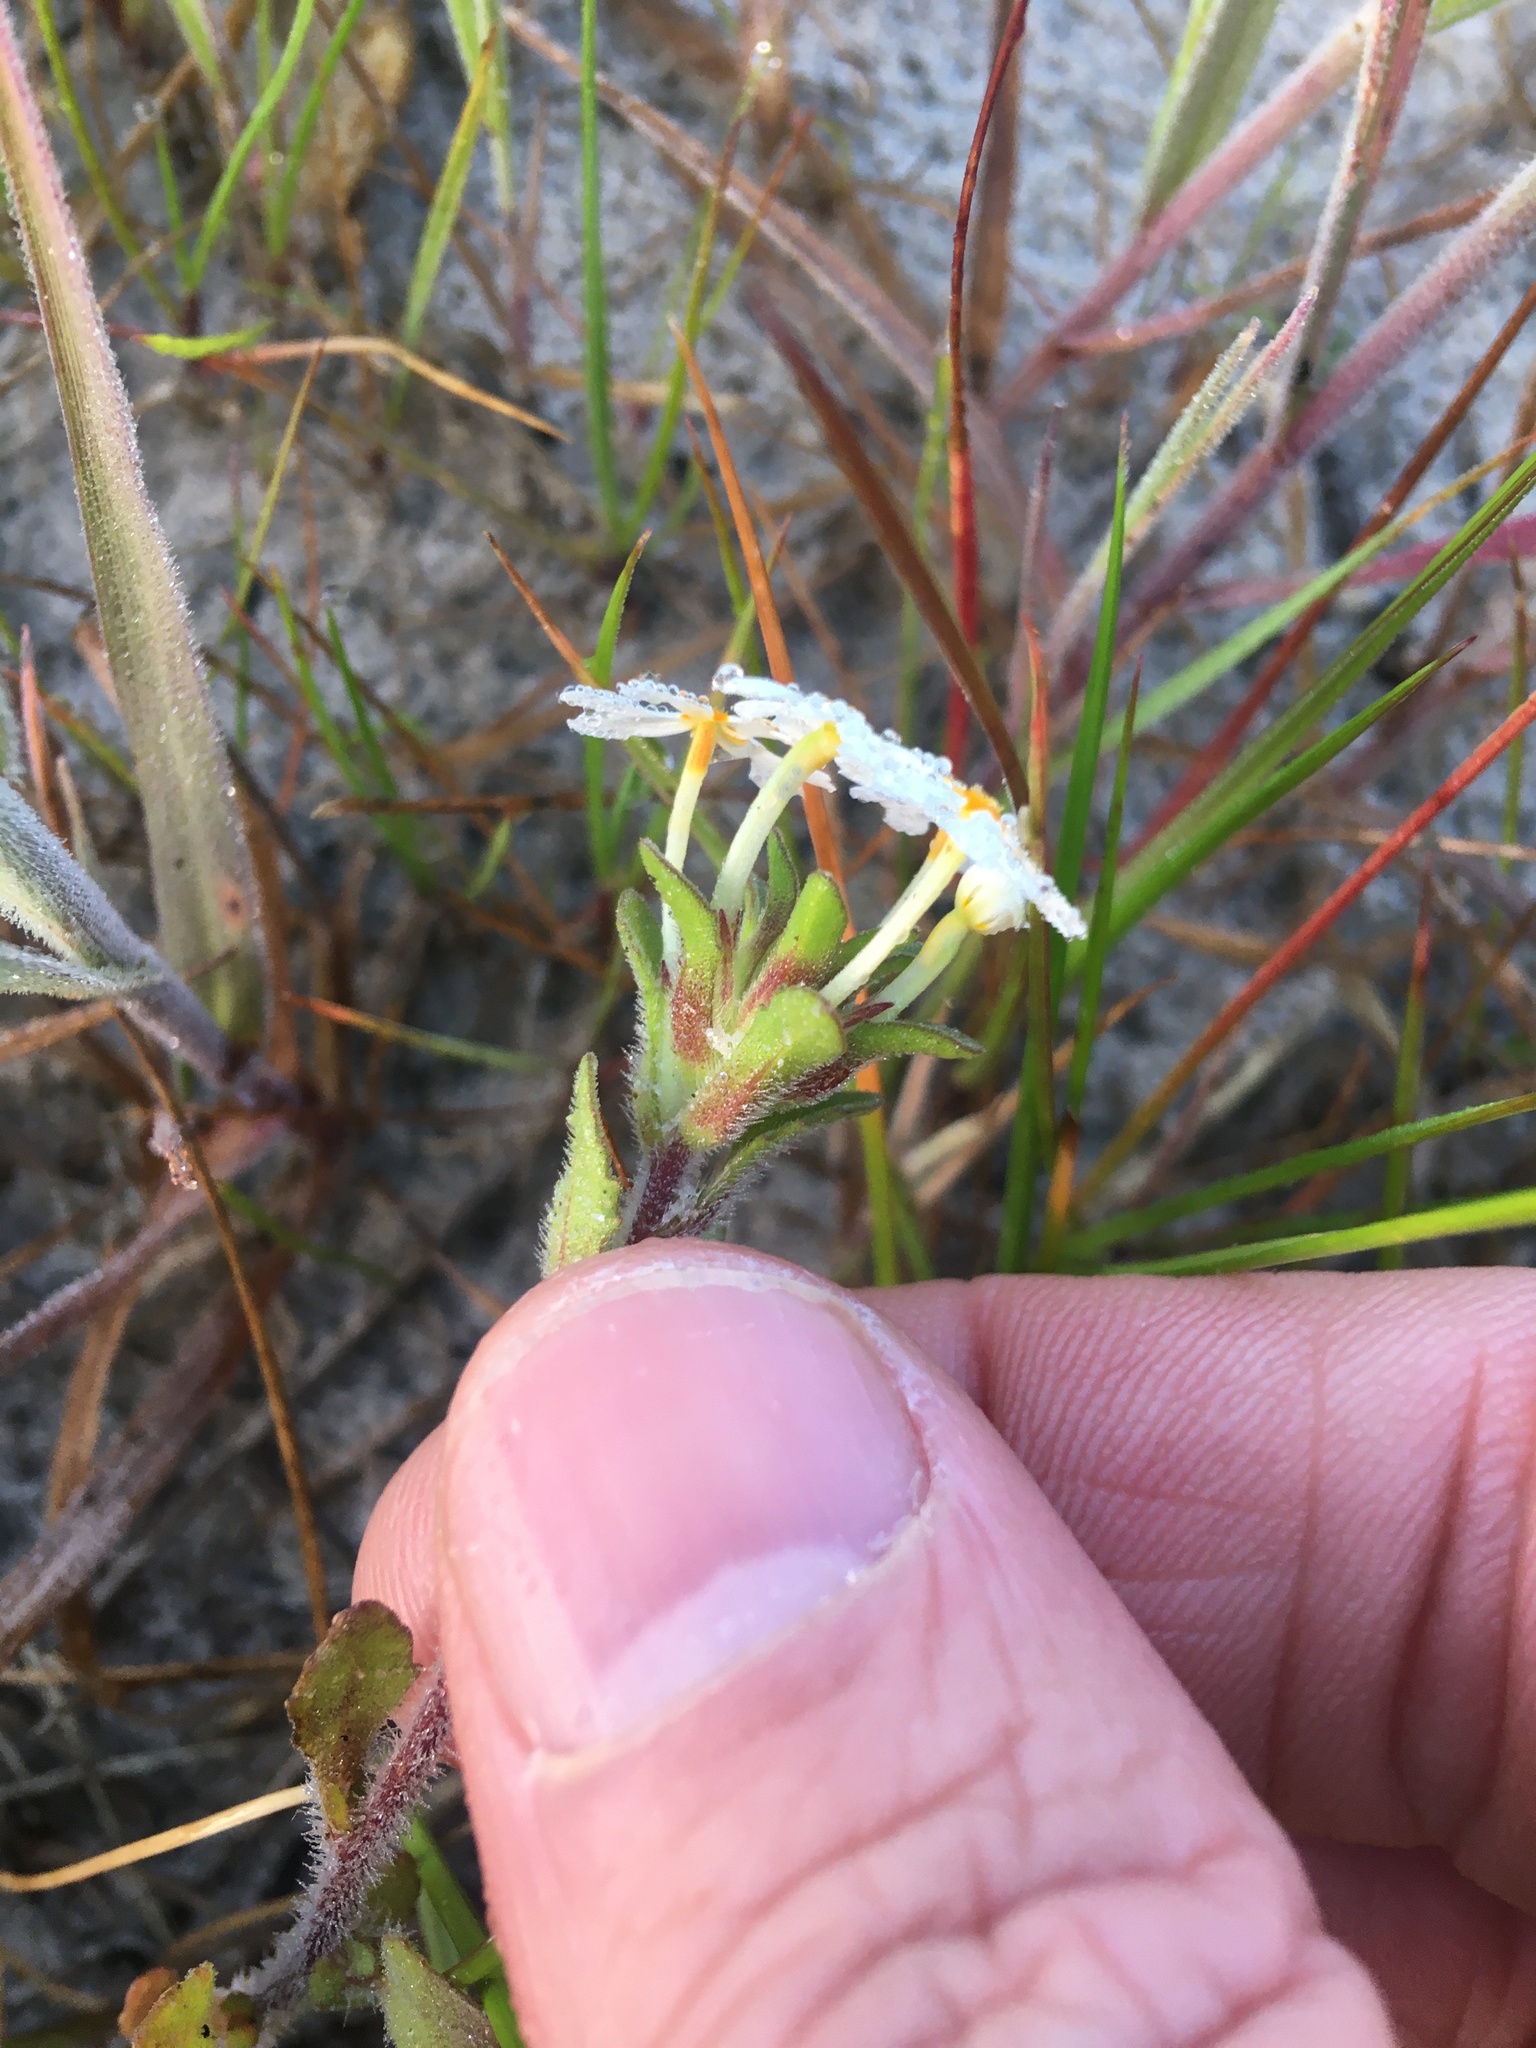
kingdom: Plantae
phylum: Tracheophyta
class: Magnoliopsida
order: Lamiales
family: Scrophulariaceae
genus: Zaluzianskya
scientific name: Zaluzianskya villosa
